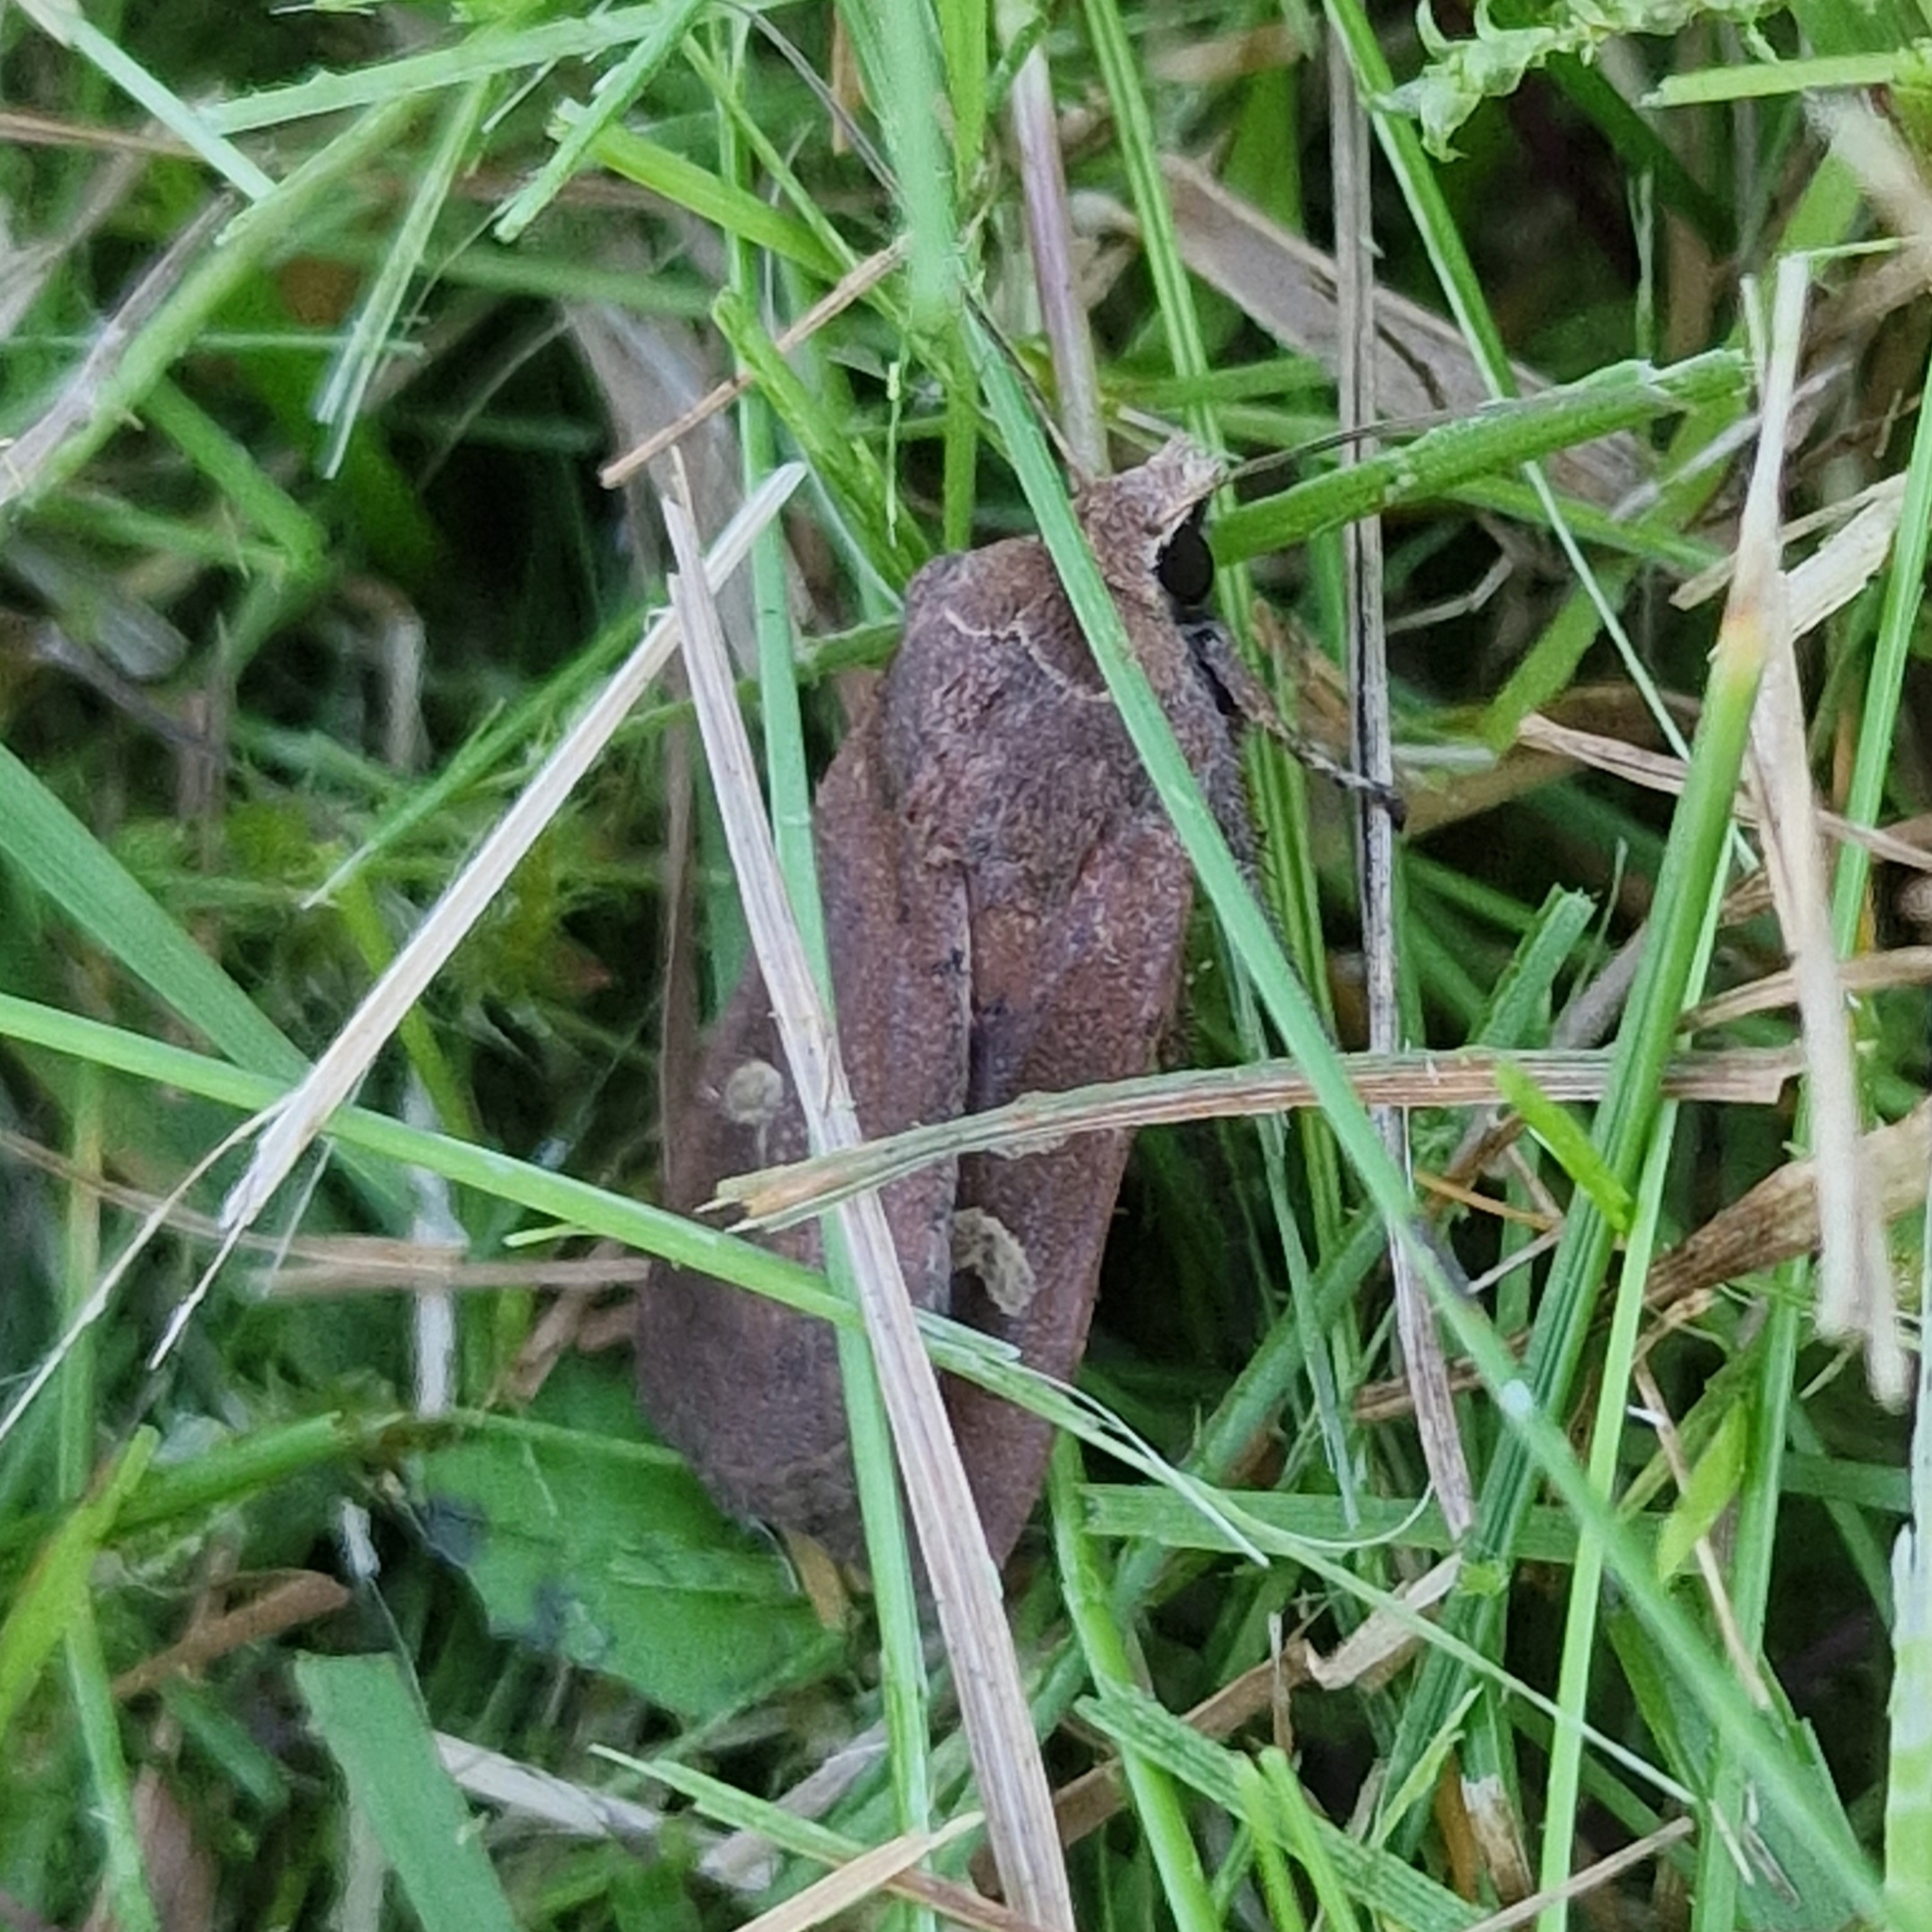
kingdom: Animalia
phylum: Arthropoda
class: Insecta
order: Lepidoptera
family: Noctuidae
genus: Xestia
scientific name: Xestia xanthographa
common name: Square-spot rustic
